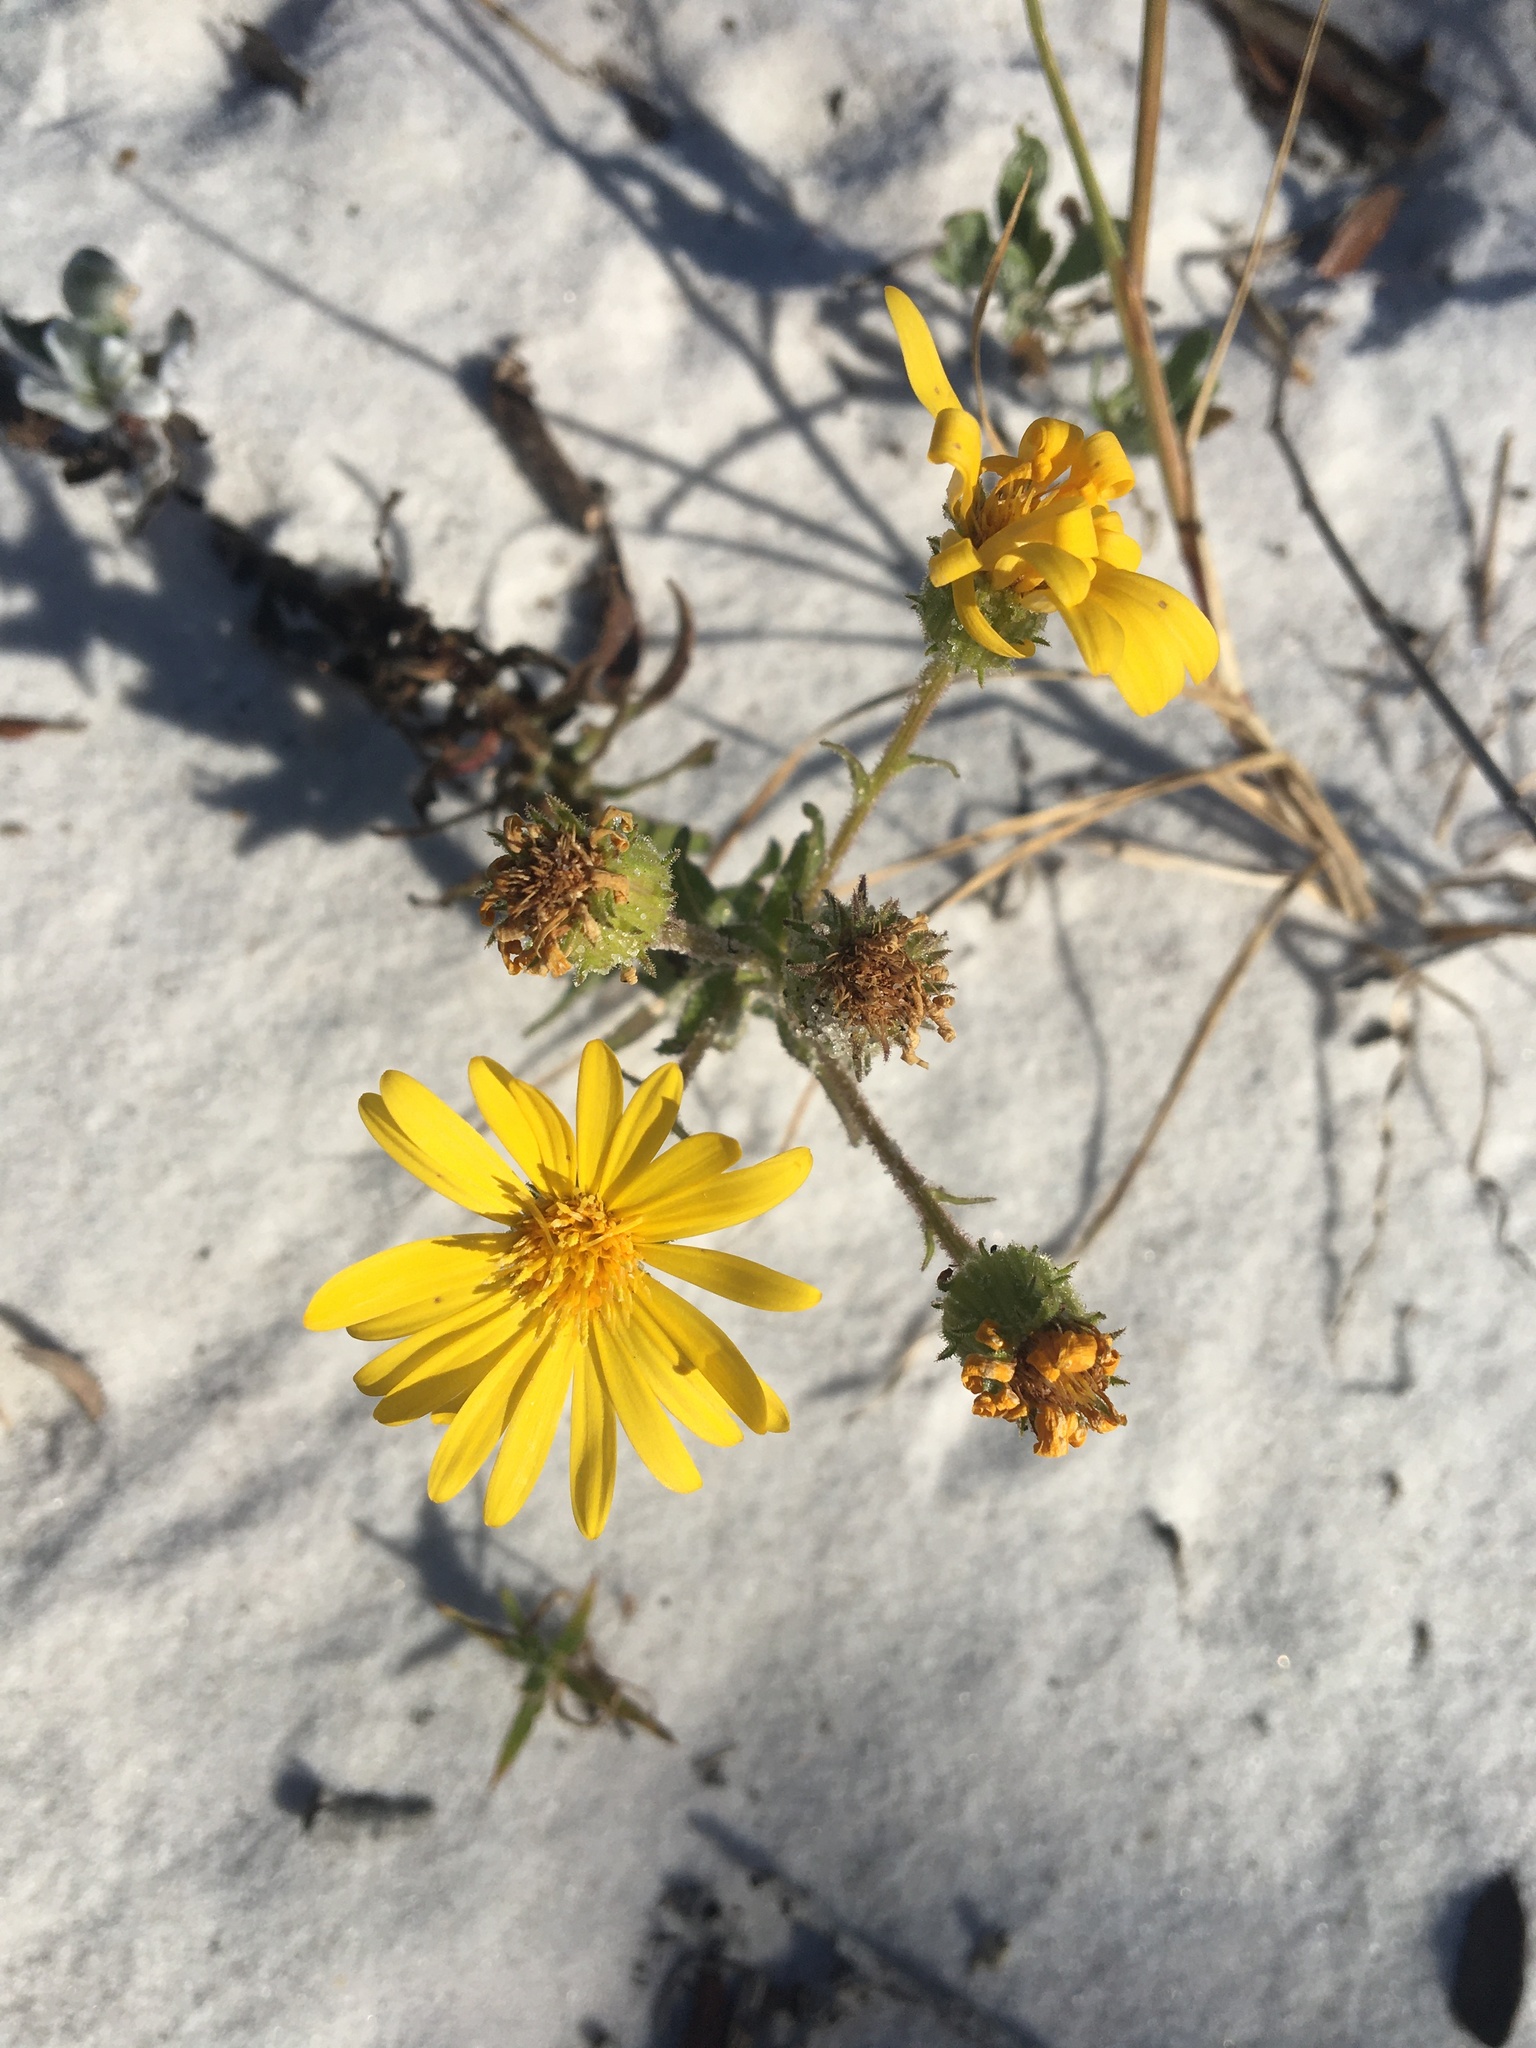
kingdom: Plantae
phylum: Tracheophyta
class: Magnoliopsida
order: Asterales
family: Asteraceae
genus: Heterotheca
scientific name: Heterotheca subaxillaris
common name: Camphorweed
